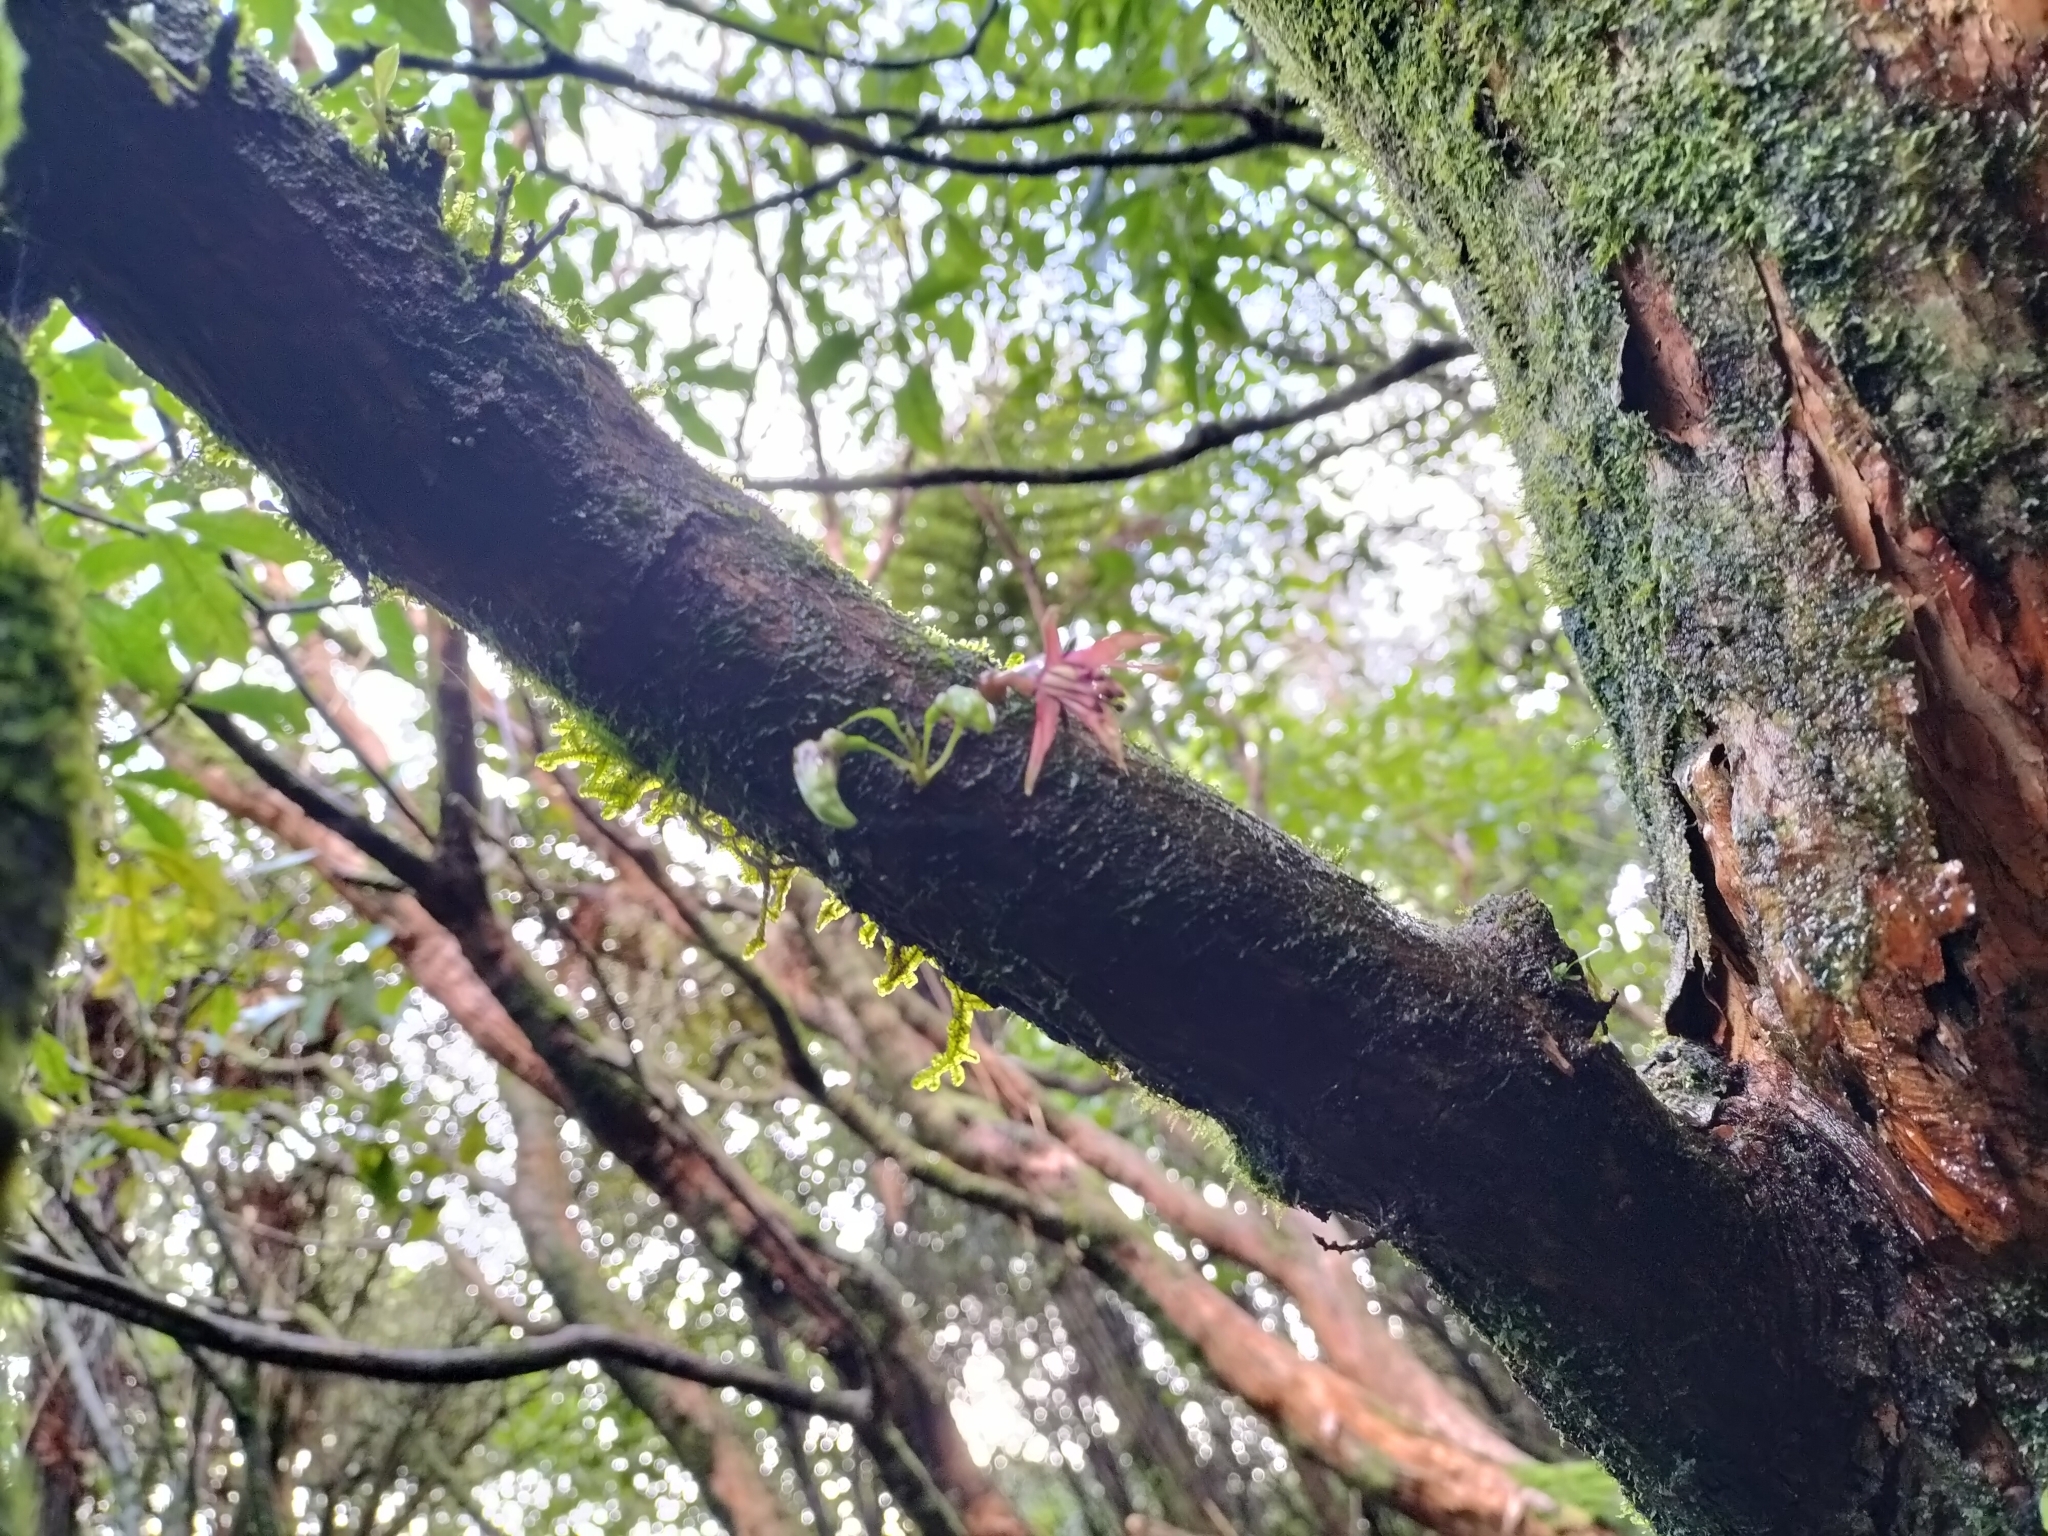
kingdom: Plantae
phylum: Tracheophyta
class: Magnoliopsida
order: Myrtales
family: Onagraceae
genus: Fuchsia
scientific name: Fuchsia excorticata
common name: Tree fuchsia
